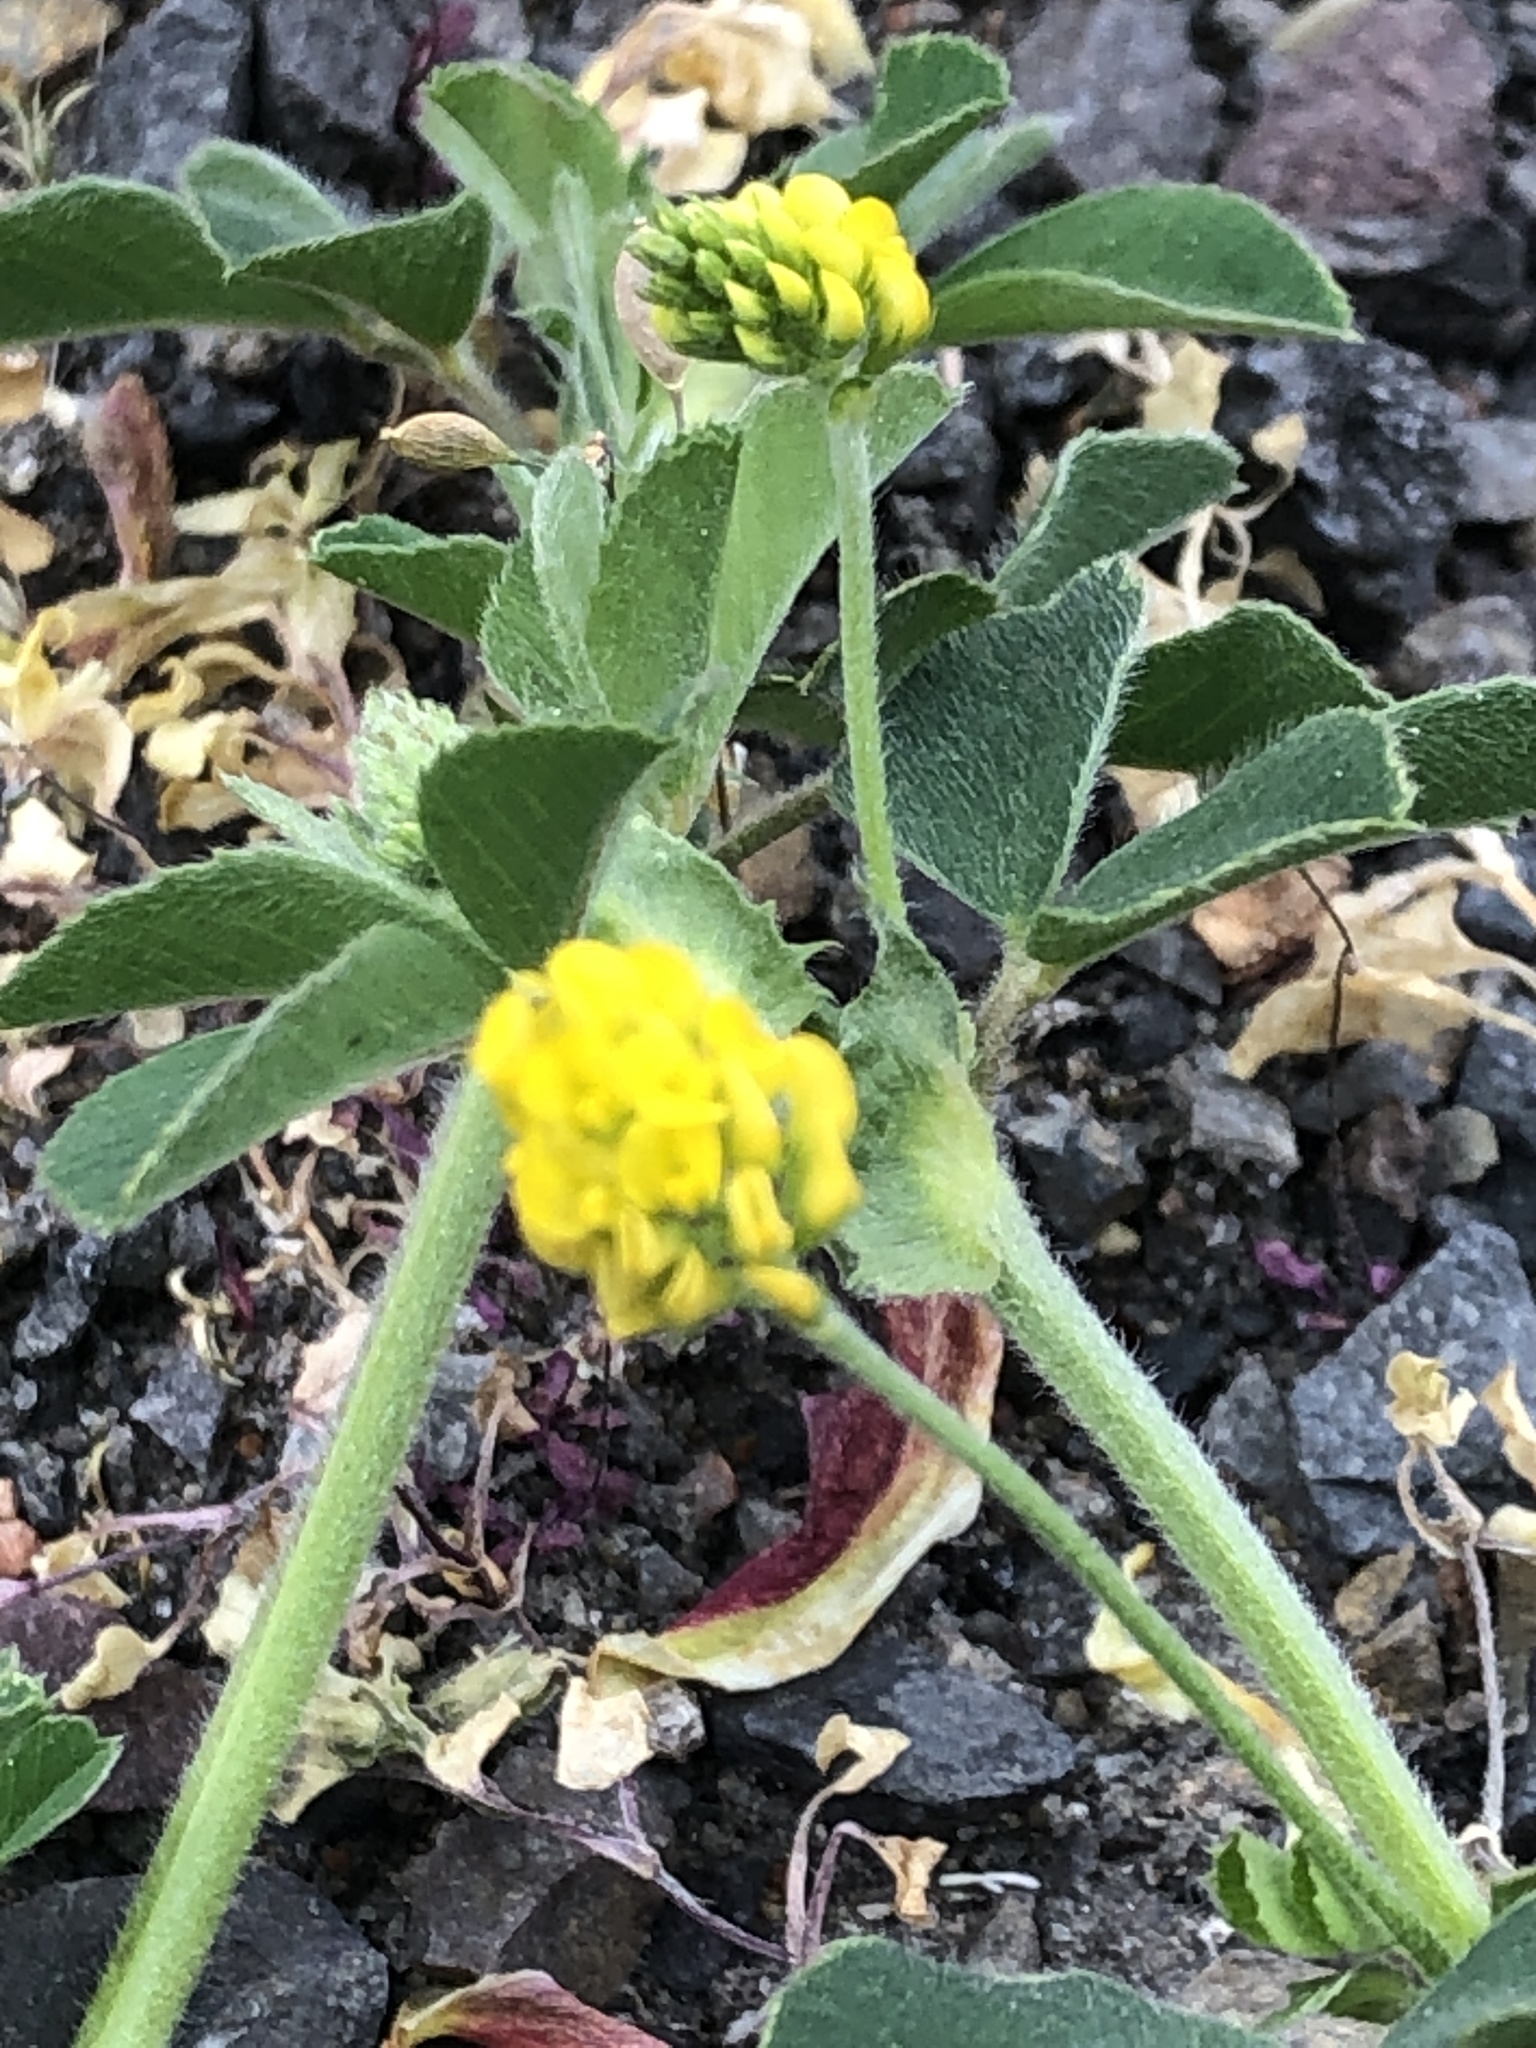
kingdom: Plantae
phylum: Tracheophyta
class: Magnoliopsida
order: Fabales
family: Fabaceae
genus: Medicago
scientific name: Medicago lupulina
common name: Black medick
